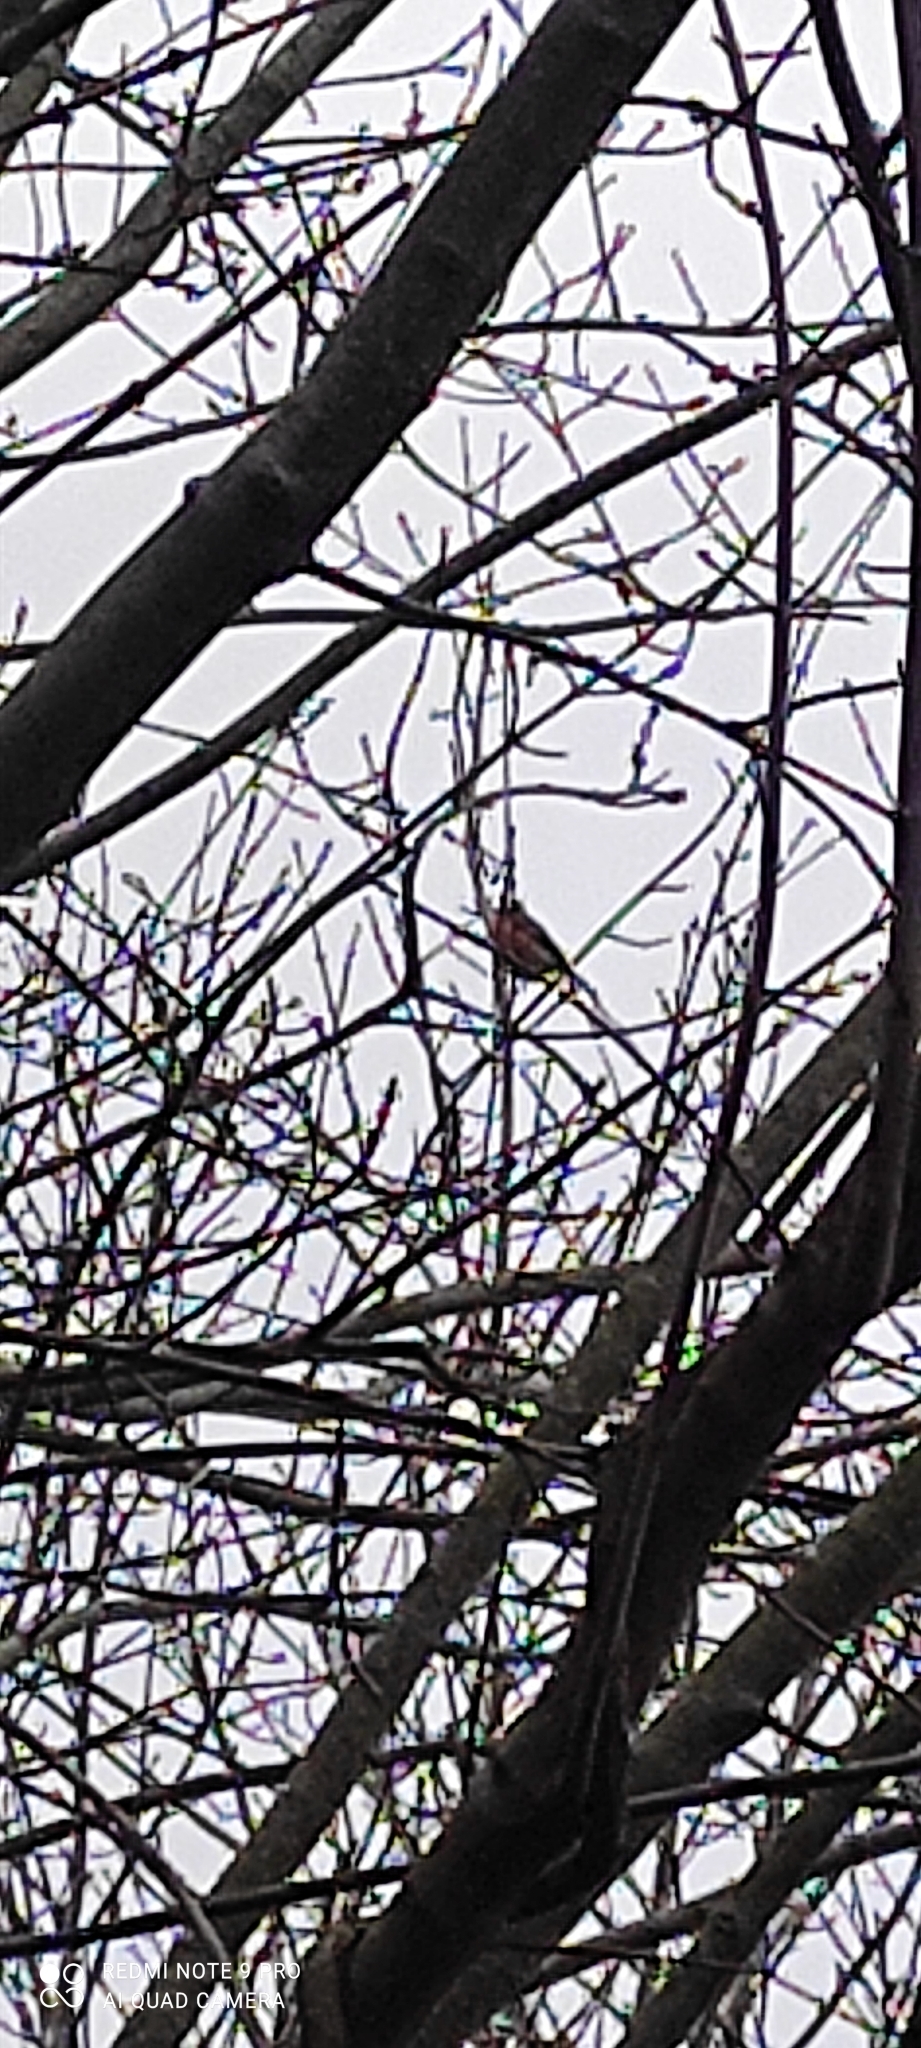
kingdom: Animalia
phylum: Chordata
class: Aves
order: Passeriformes
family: Fringillidae
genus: Pyrrhula
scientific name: Pyrrhula pyrrhula
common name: Eurasian bullfinch
